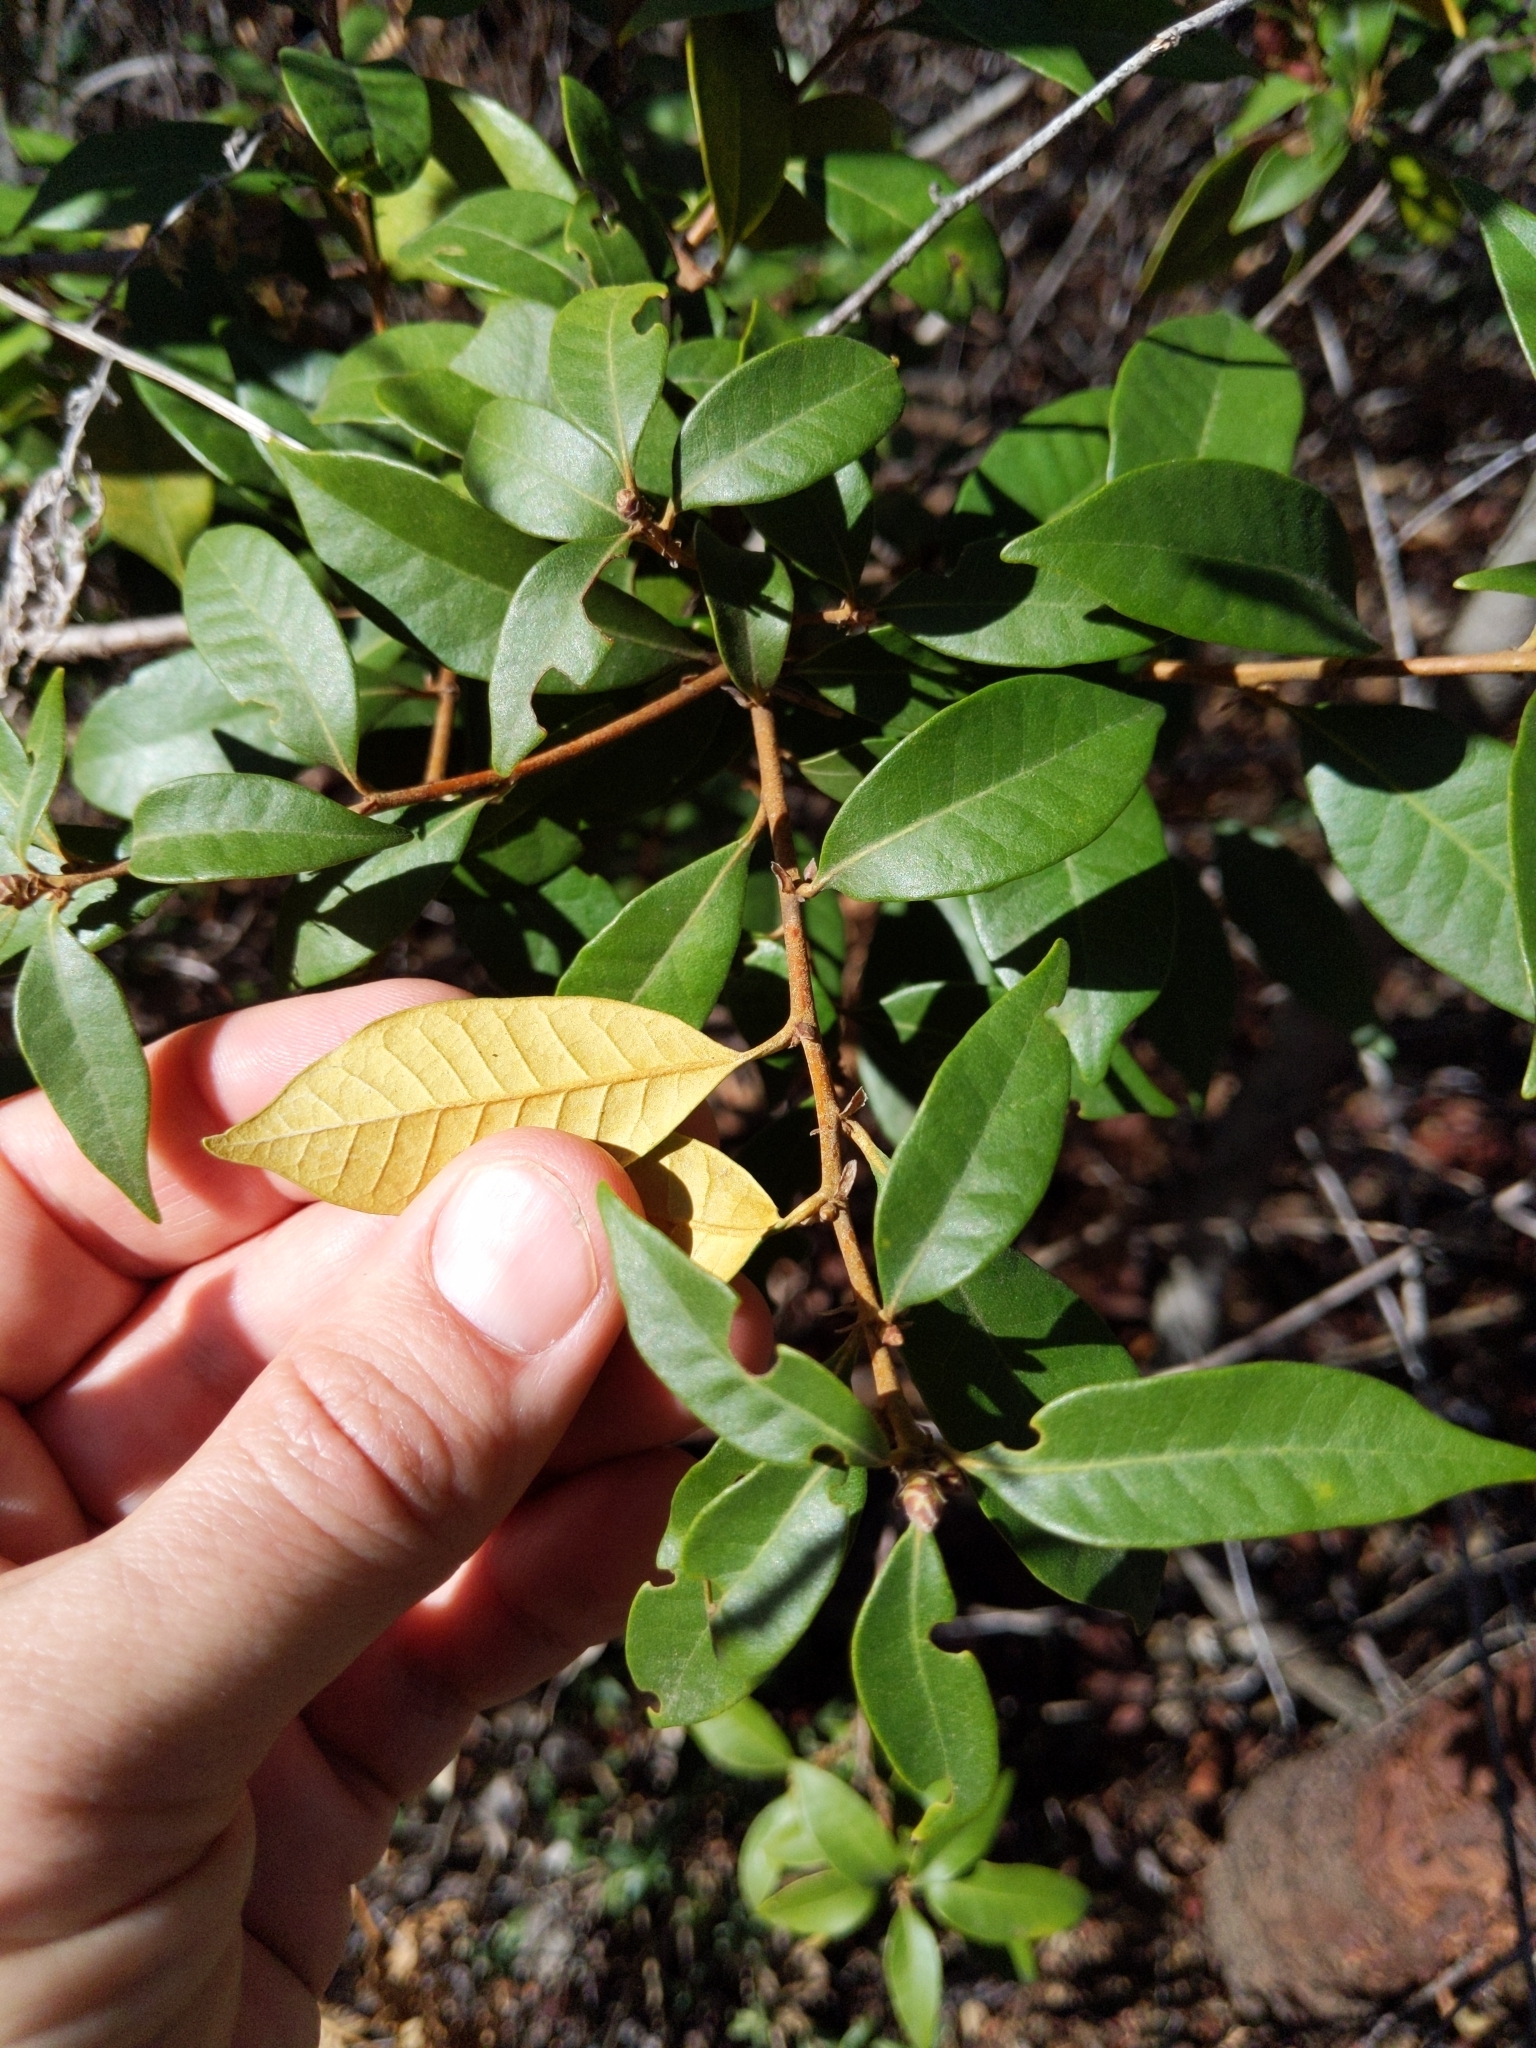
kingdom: Plantae
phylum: Tracheophyta
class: Magnoliopsida
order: Fagales
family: Fagaceae
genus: Chrysolepis
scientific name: Chrysolepis chrysophylla
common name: Giant chinquapin
